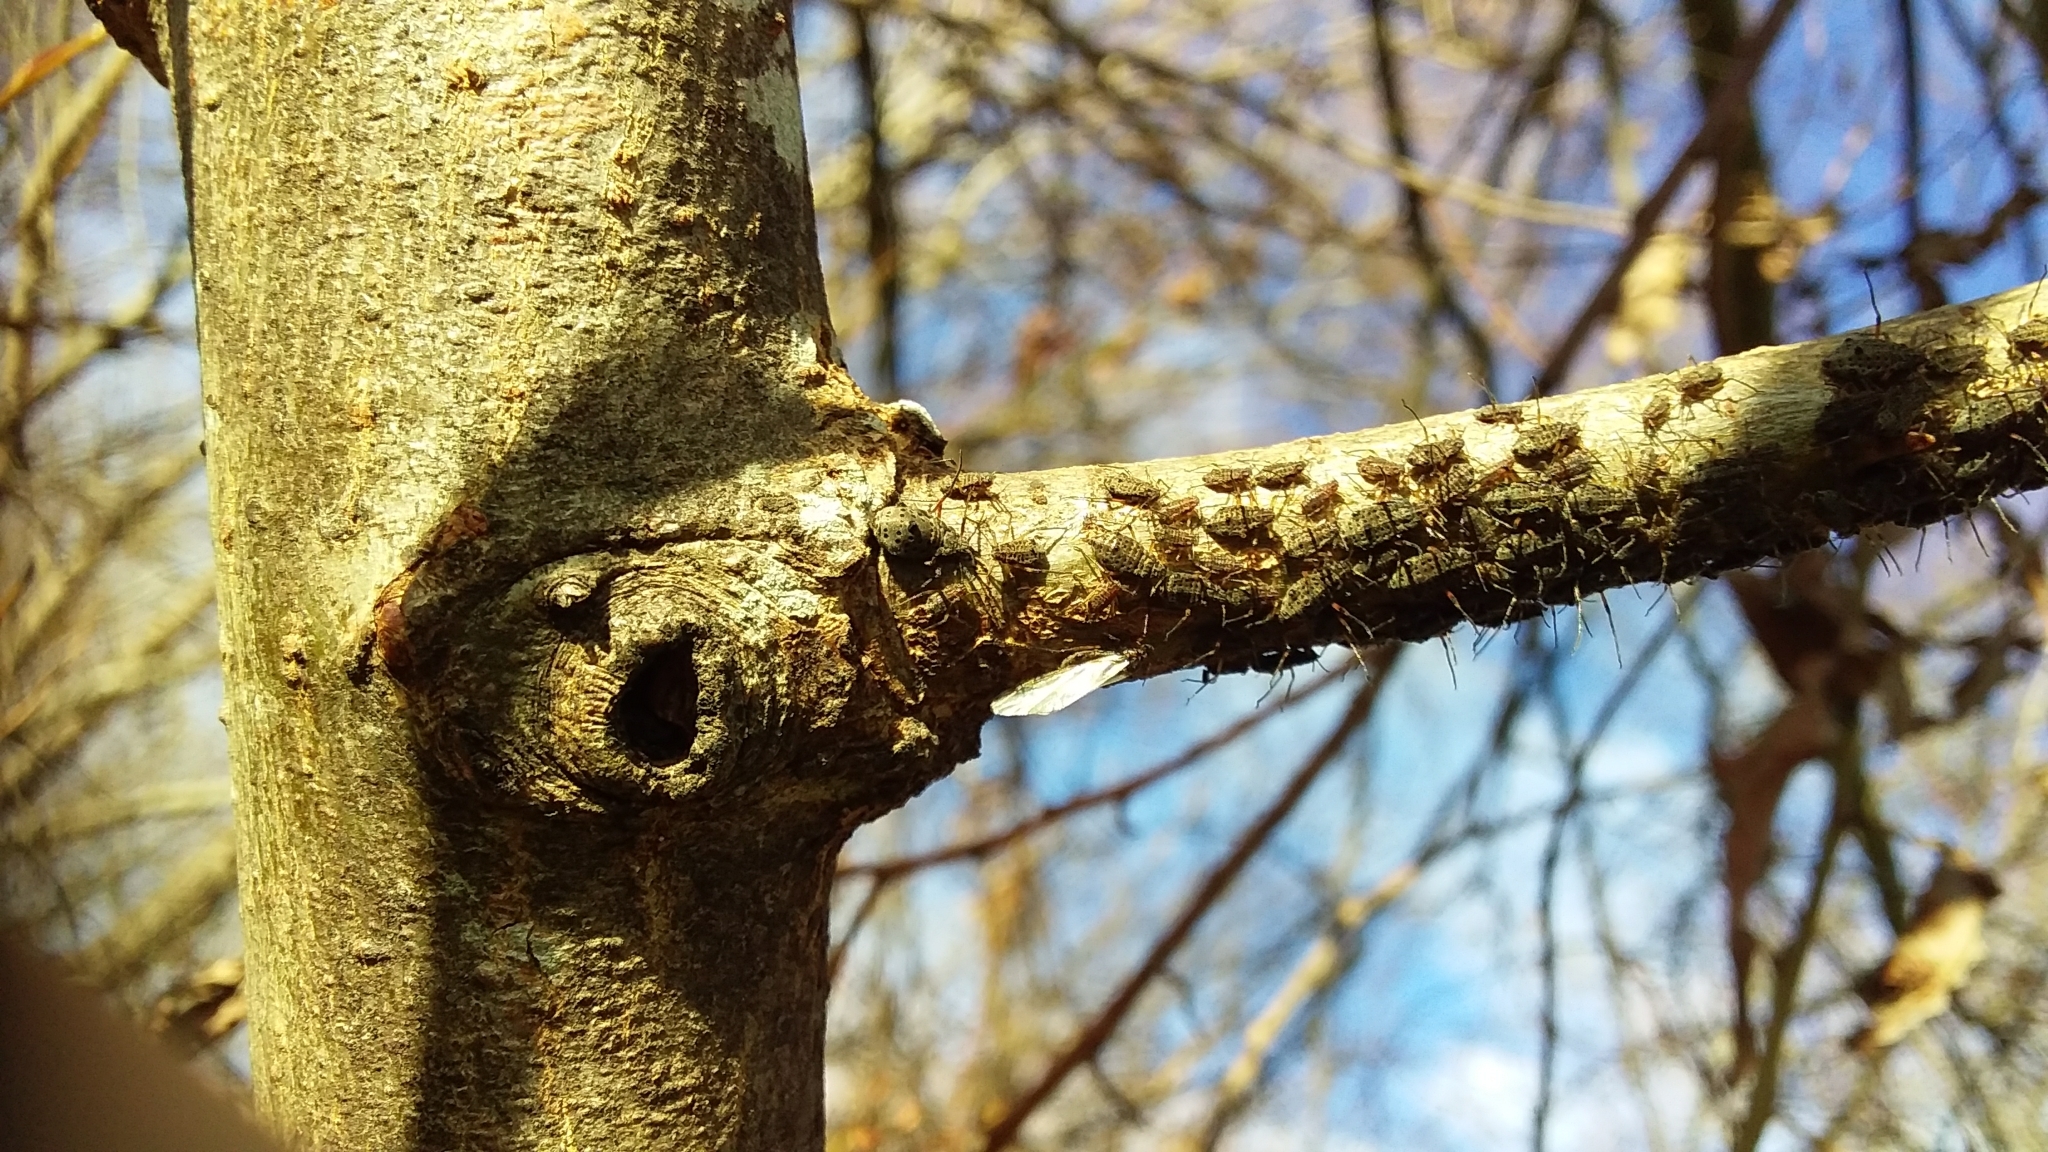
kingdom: Animalia
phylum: Arthropoda
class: Insecta
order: Hemiptera
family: Aphididae
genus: Tuberolachnus
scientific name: Tuberolachnus salignus
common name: Giant willow aphid
